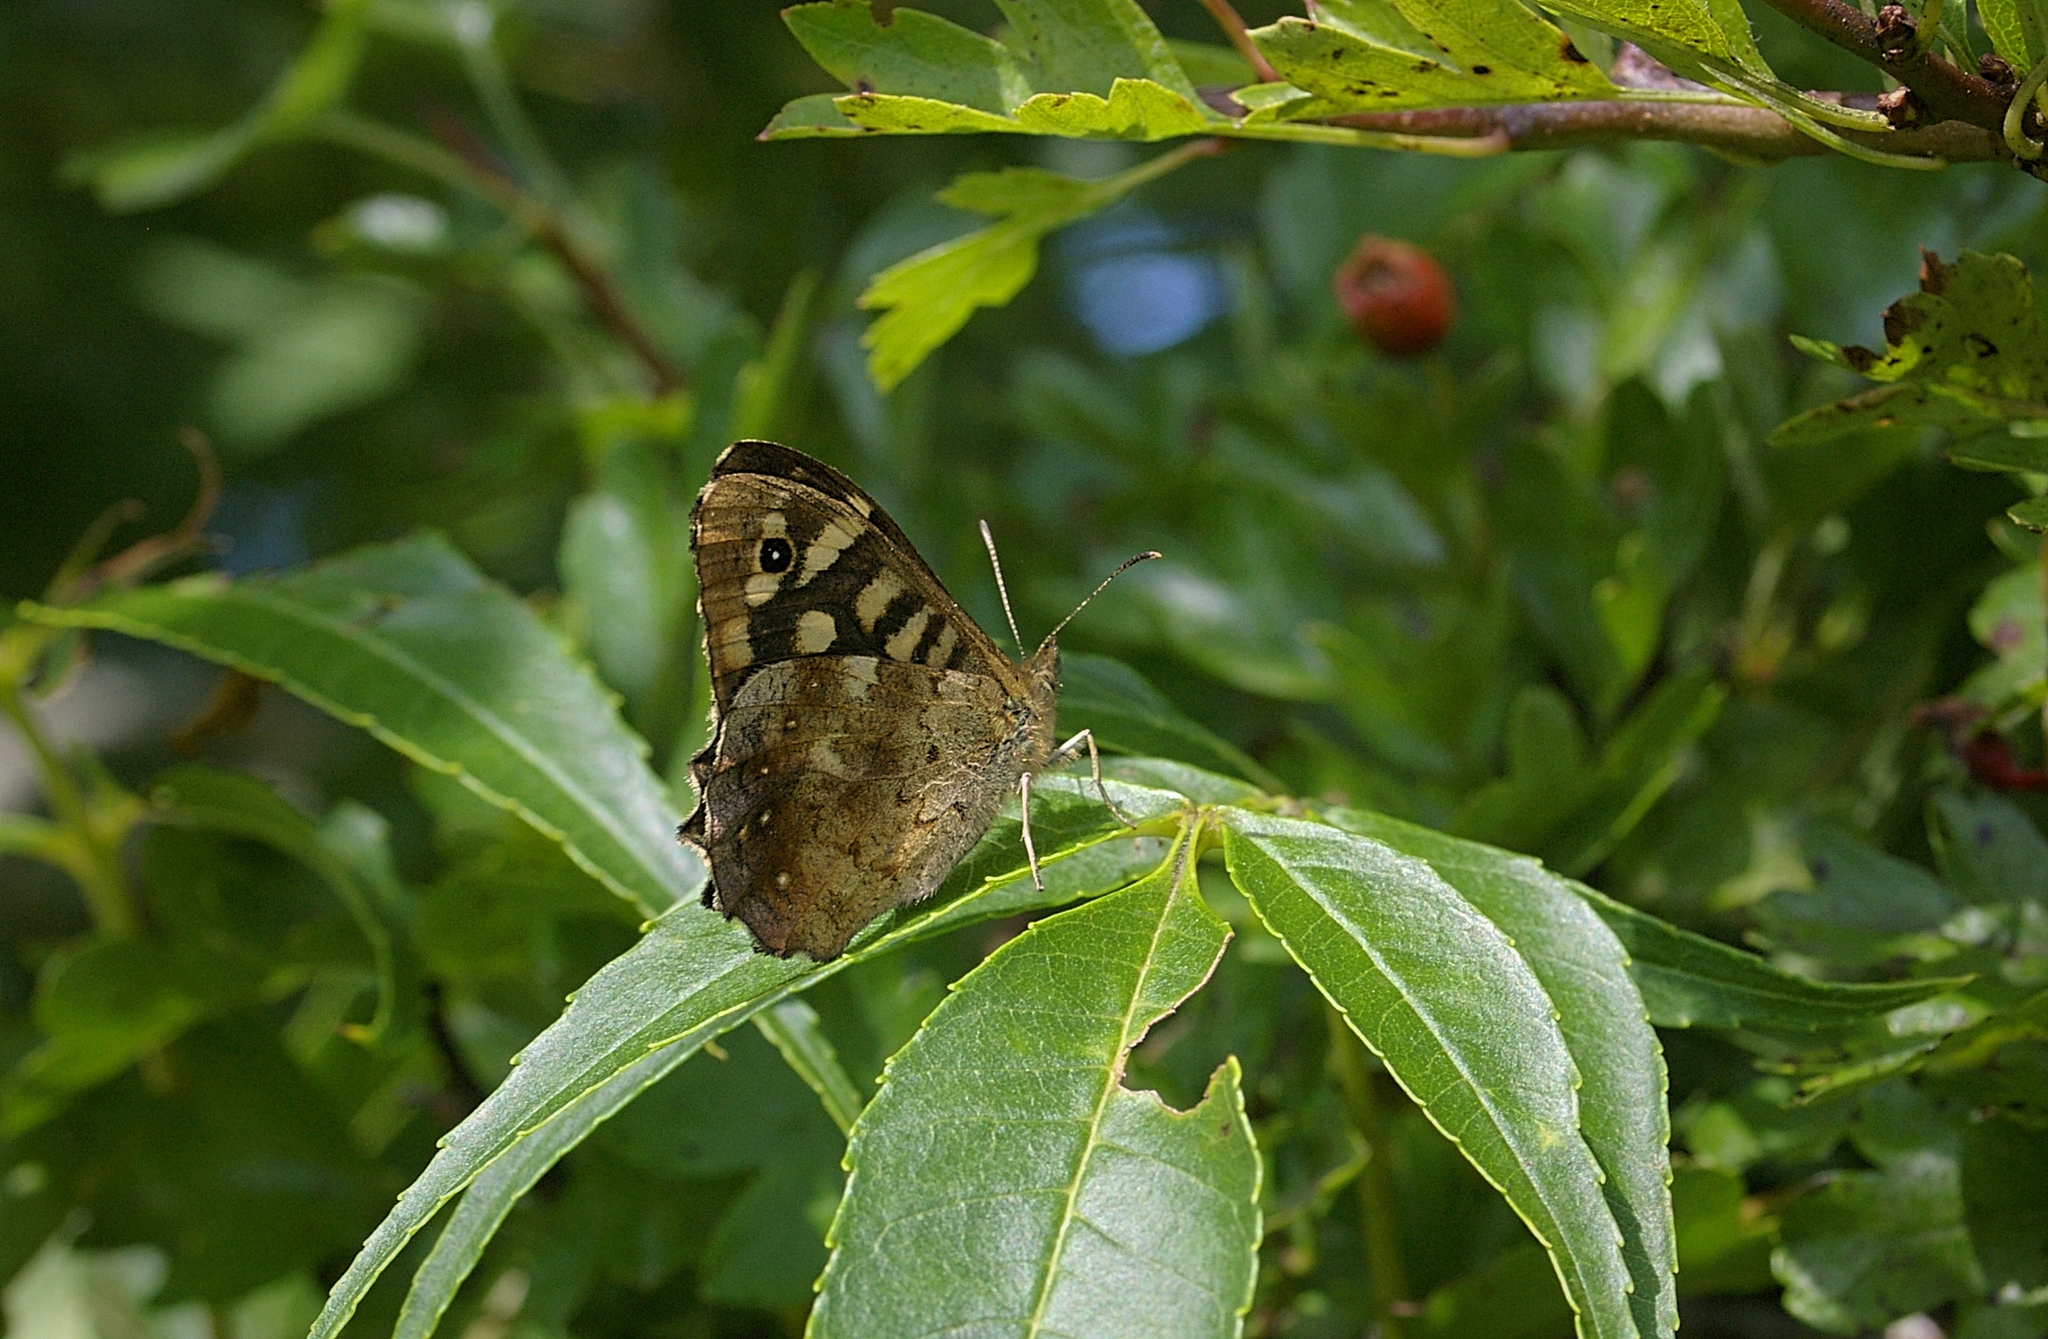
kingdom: Animalia
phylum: Arthropoda
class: Insecta
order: Lepidoptera
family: Nymphalidae
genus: Pararge
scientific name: Pararge aegeria
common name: Speckled wood
